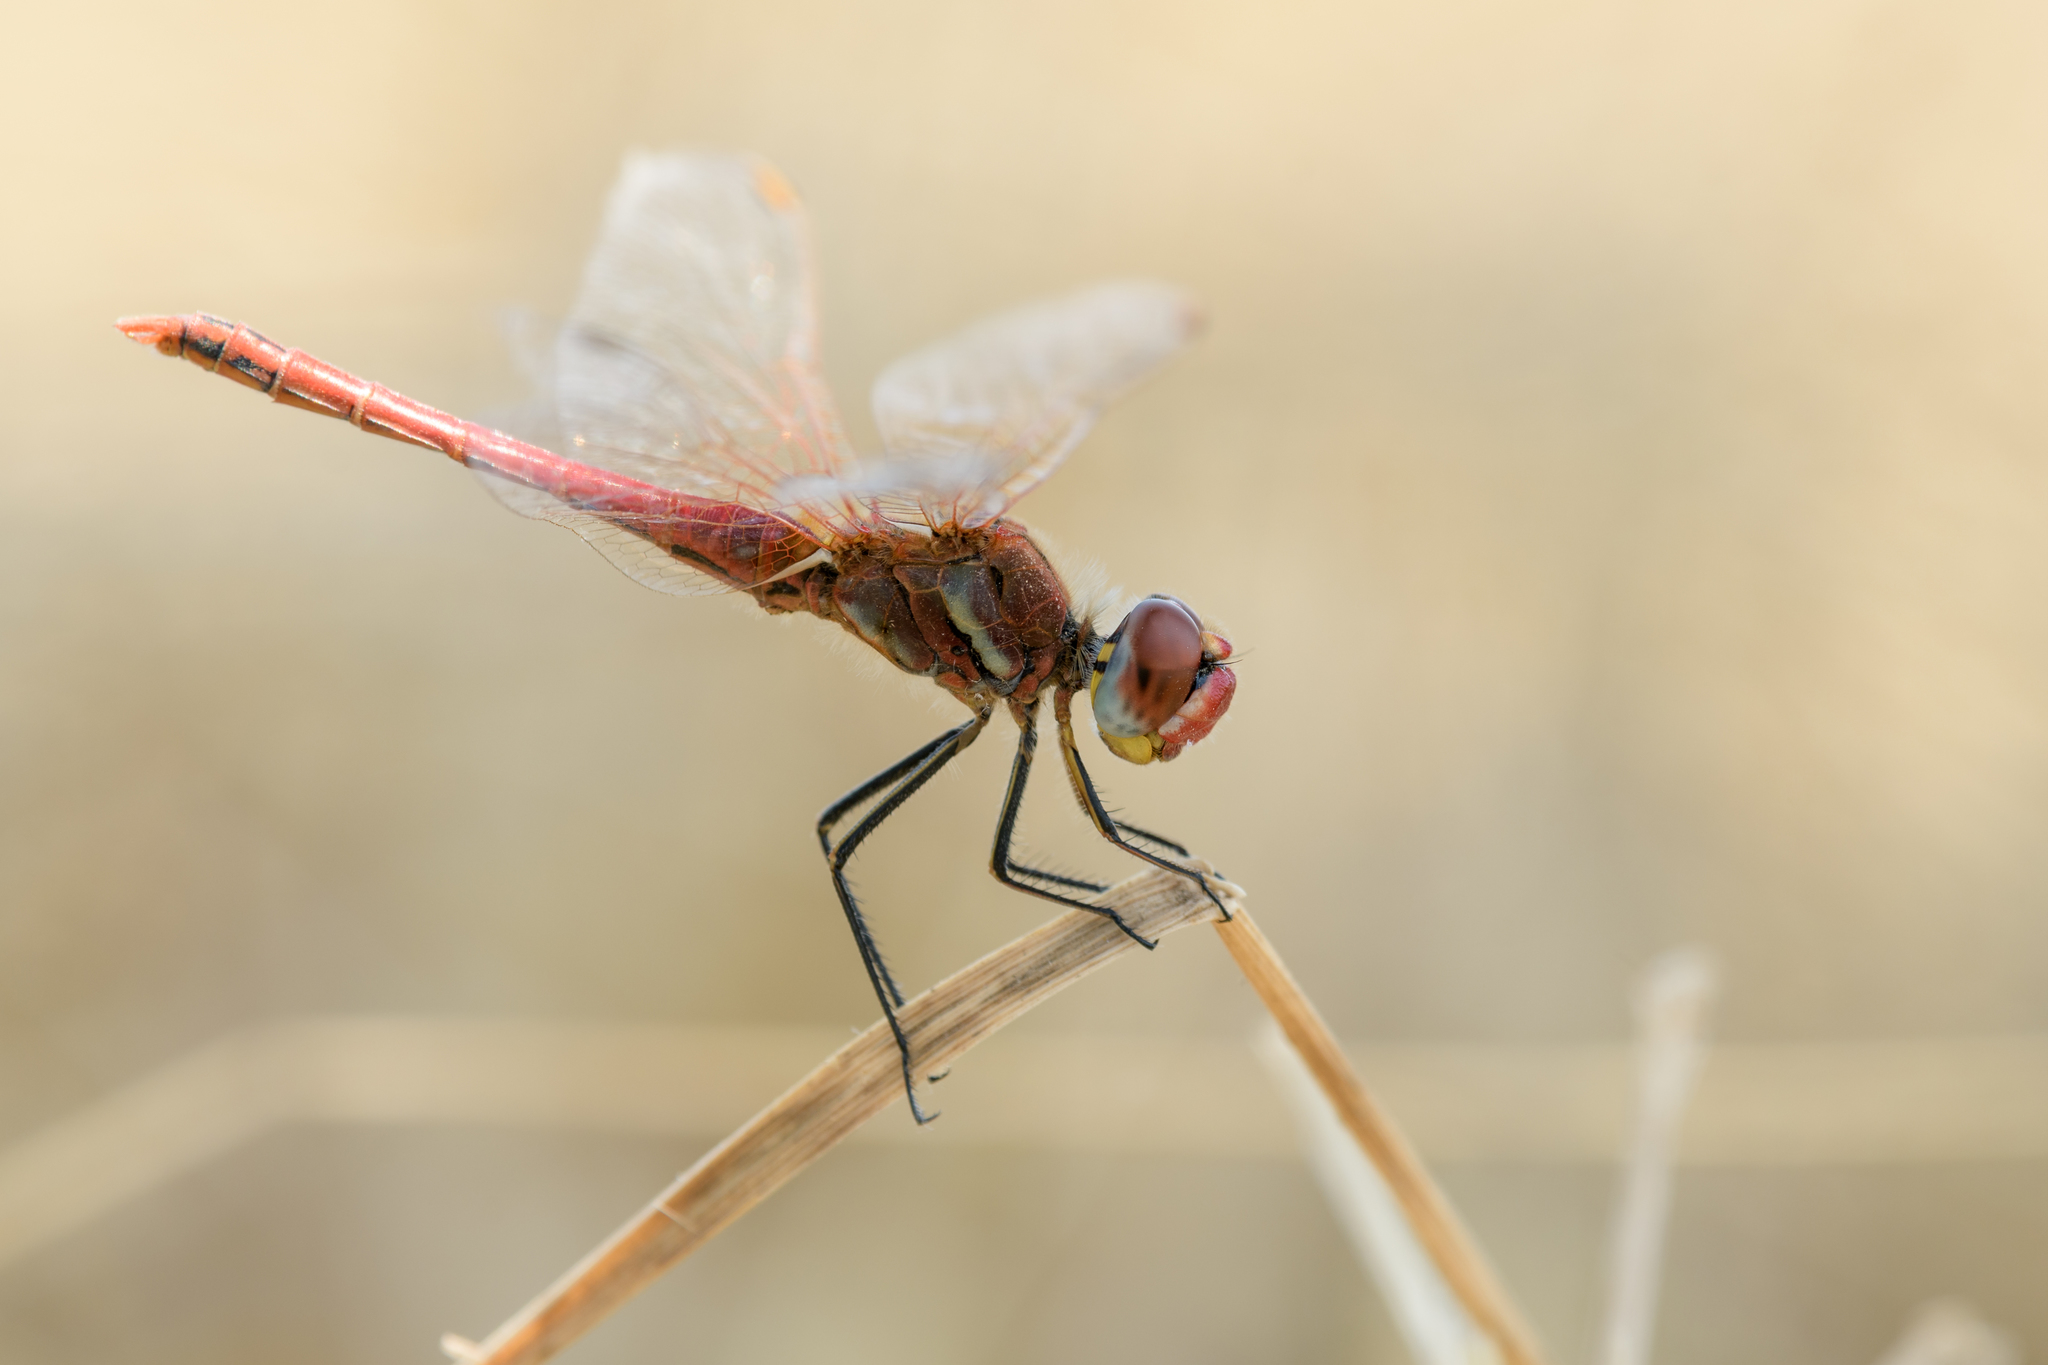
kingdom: Animalia
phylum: Arthropoda
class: Insecta
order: Odonata
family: Libellulidae
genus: Sympetrum
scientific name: Sympetrum fonscolombii
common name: Red-veined darter
